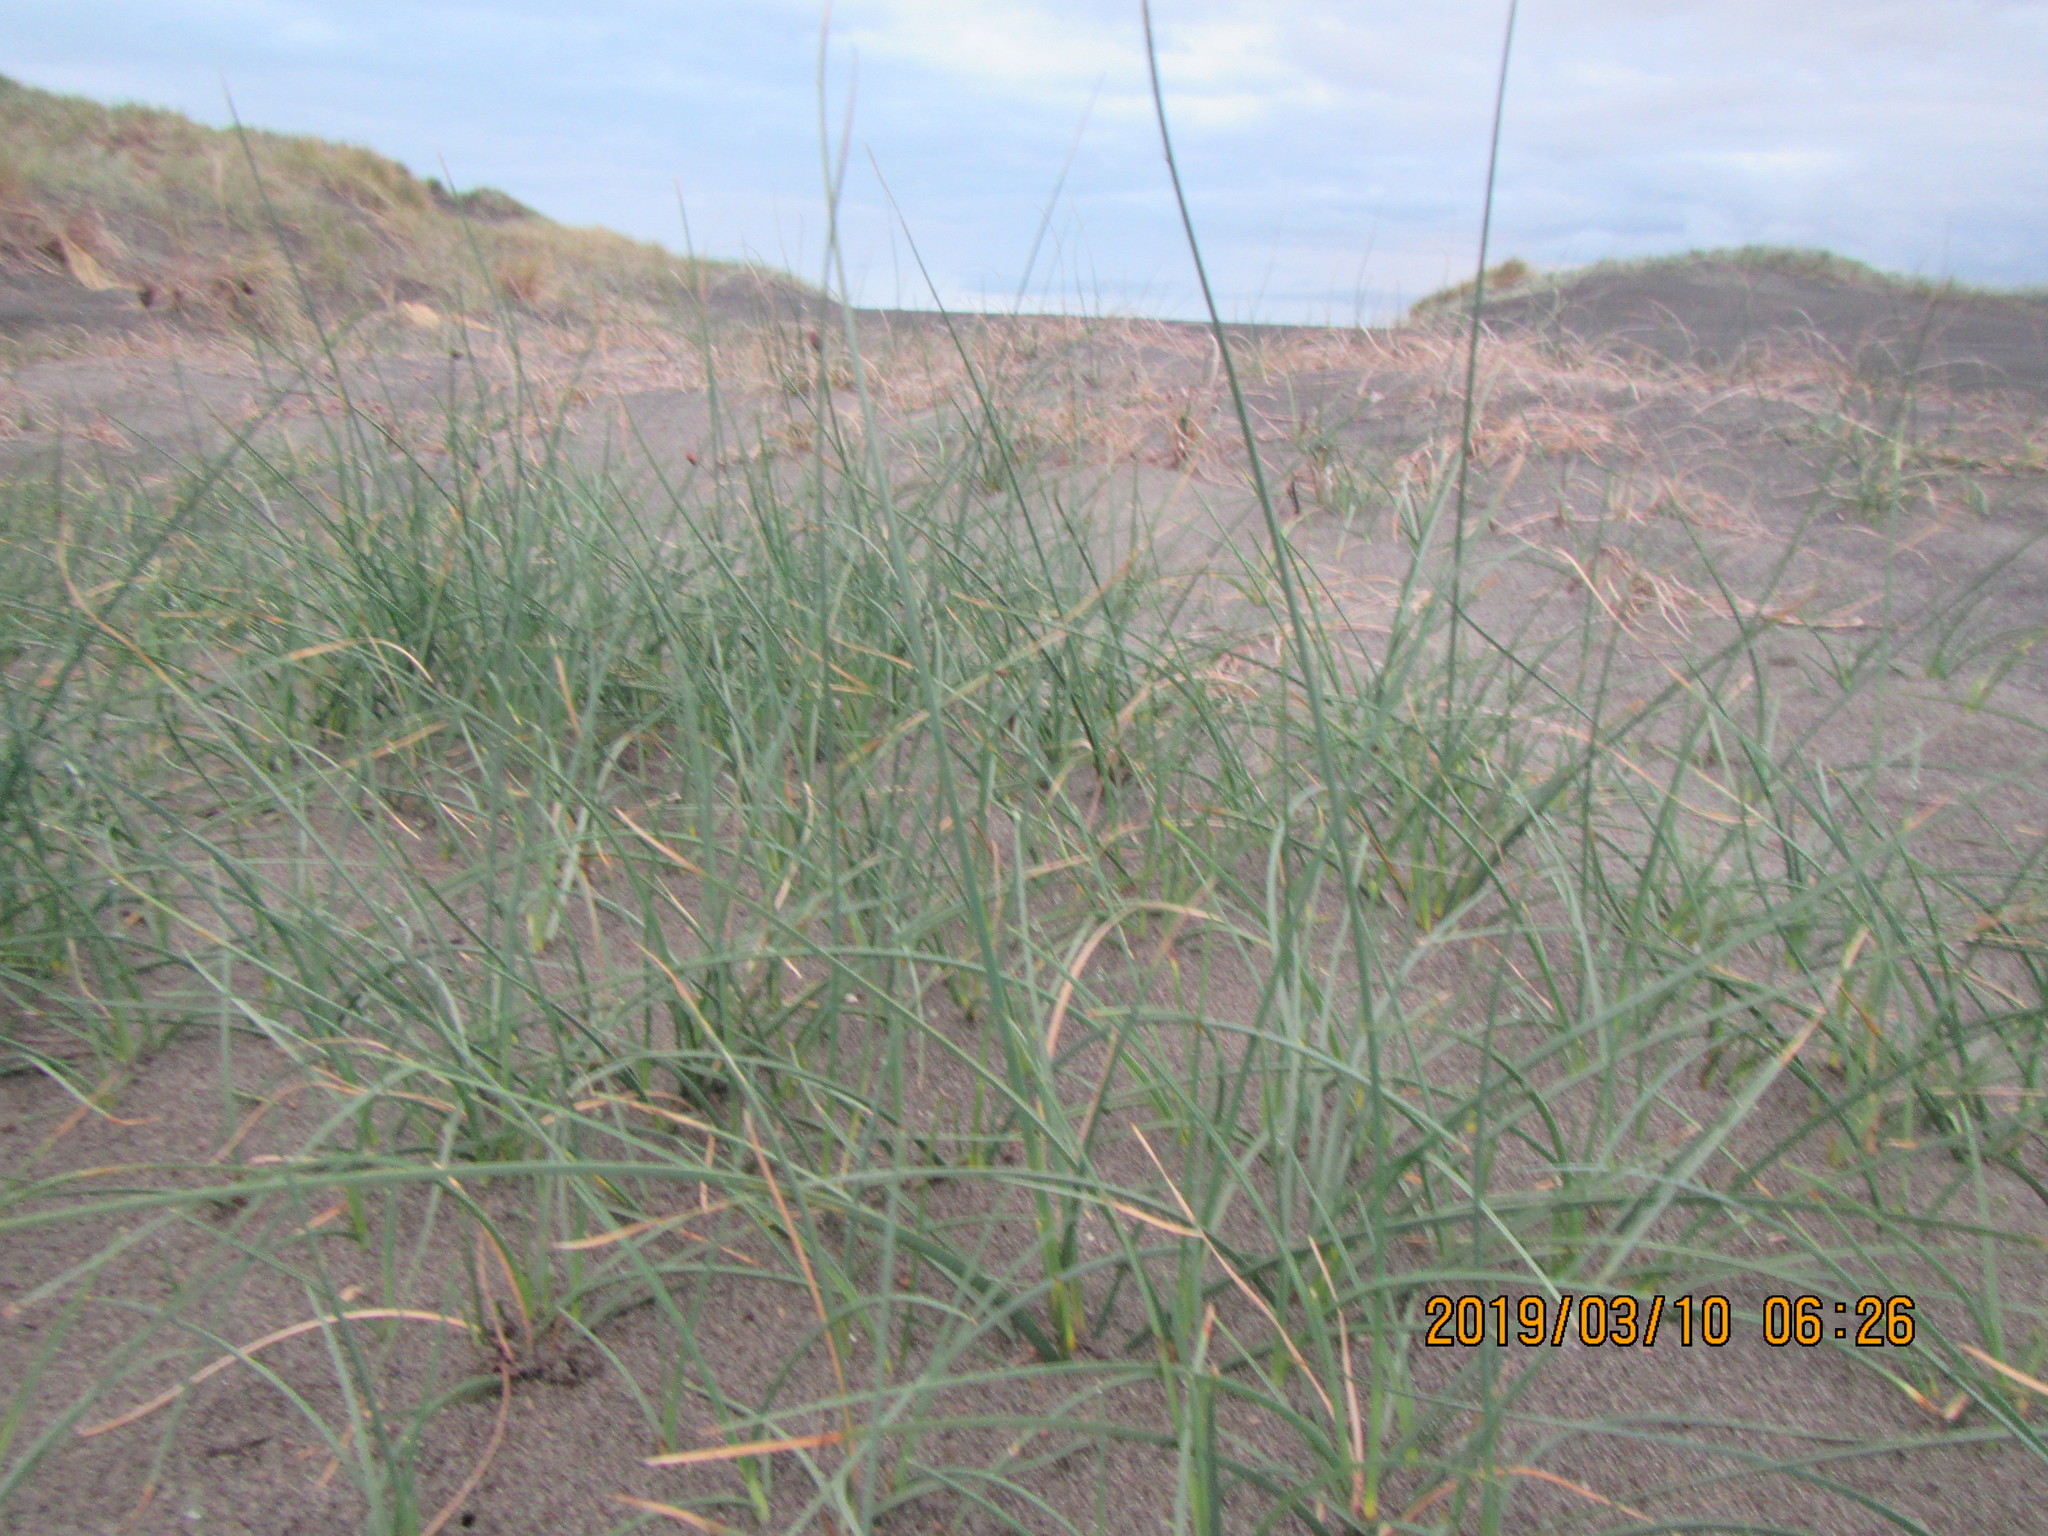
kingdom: Plantae
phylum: Tracheophyta
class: Liliopsida
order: Poales
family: Cyperaceae
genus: Schoenoplectus
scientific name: Schoenoplectus pungens
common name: Sharp club-rush
